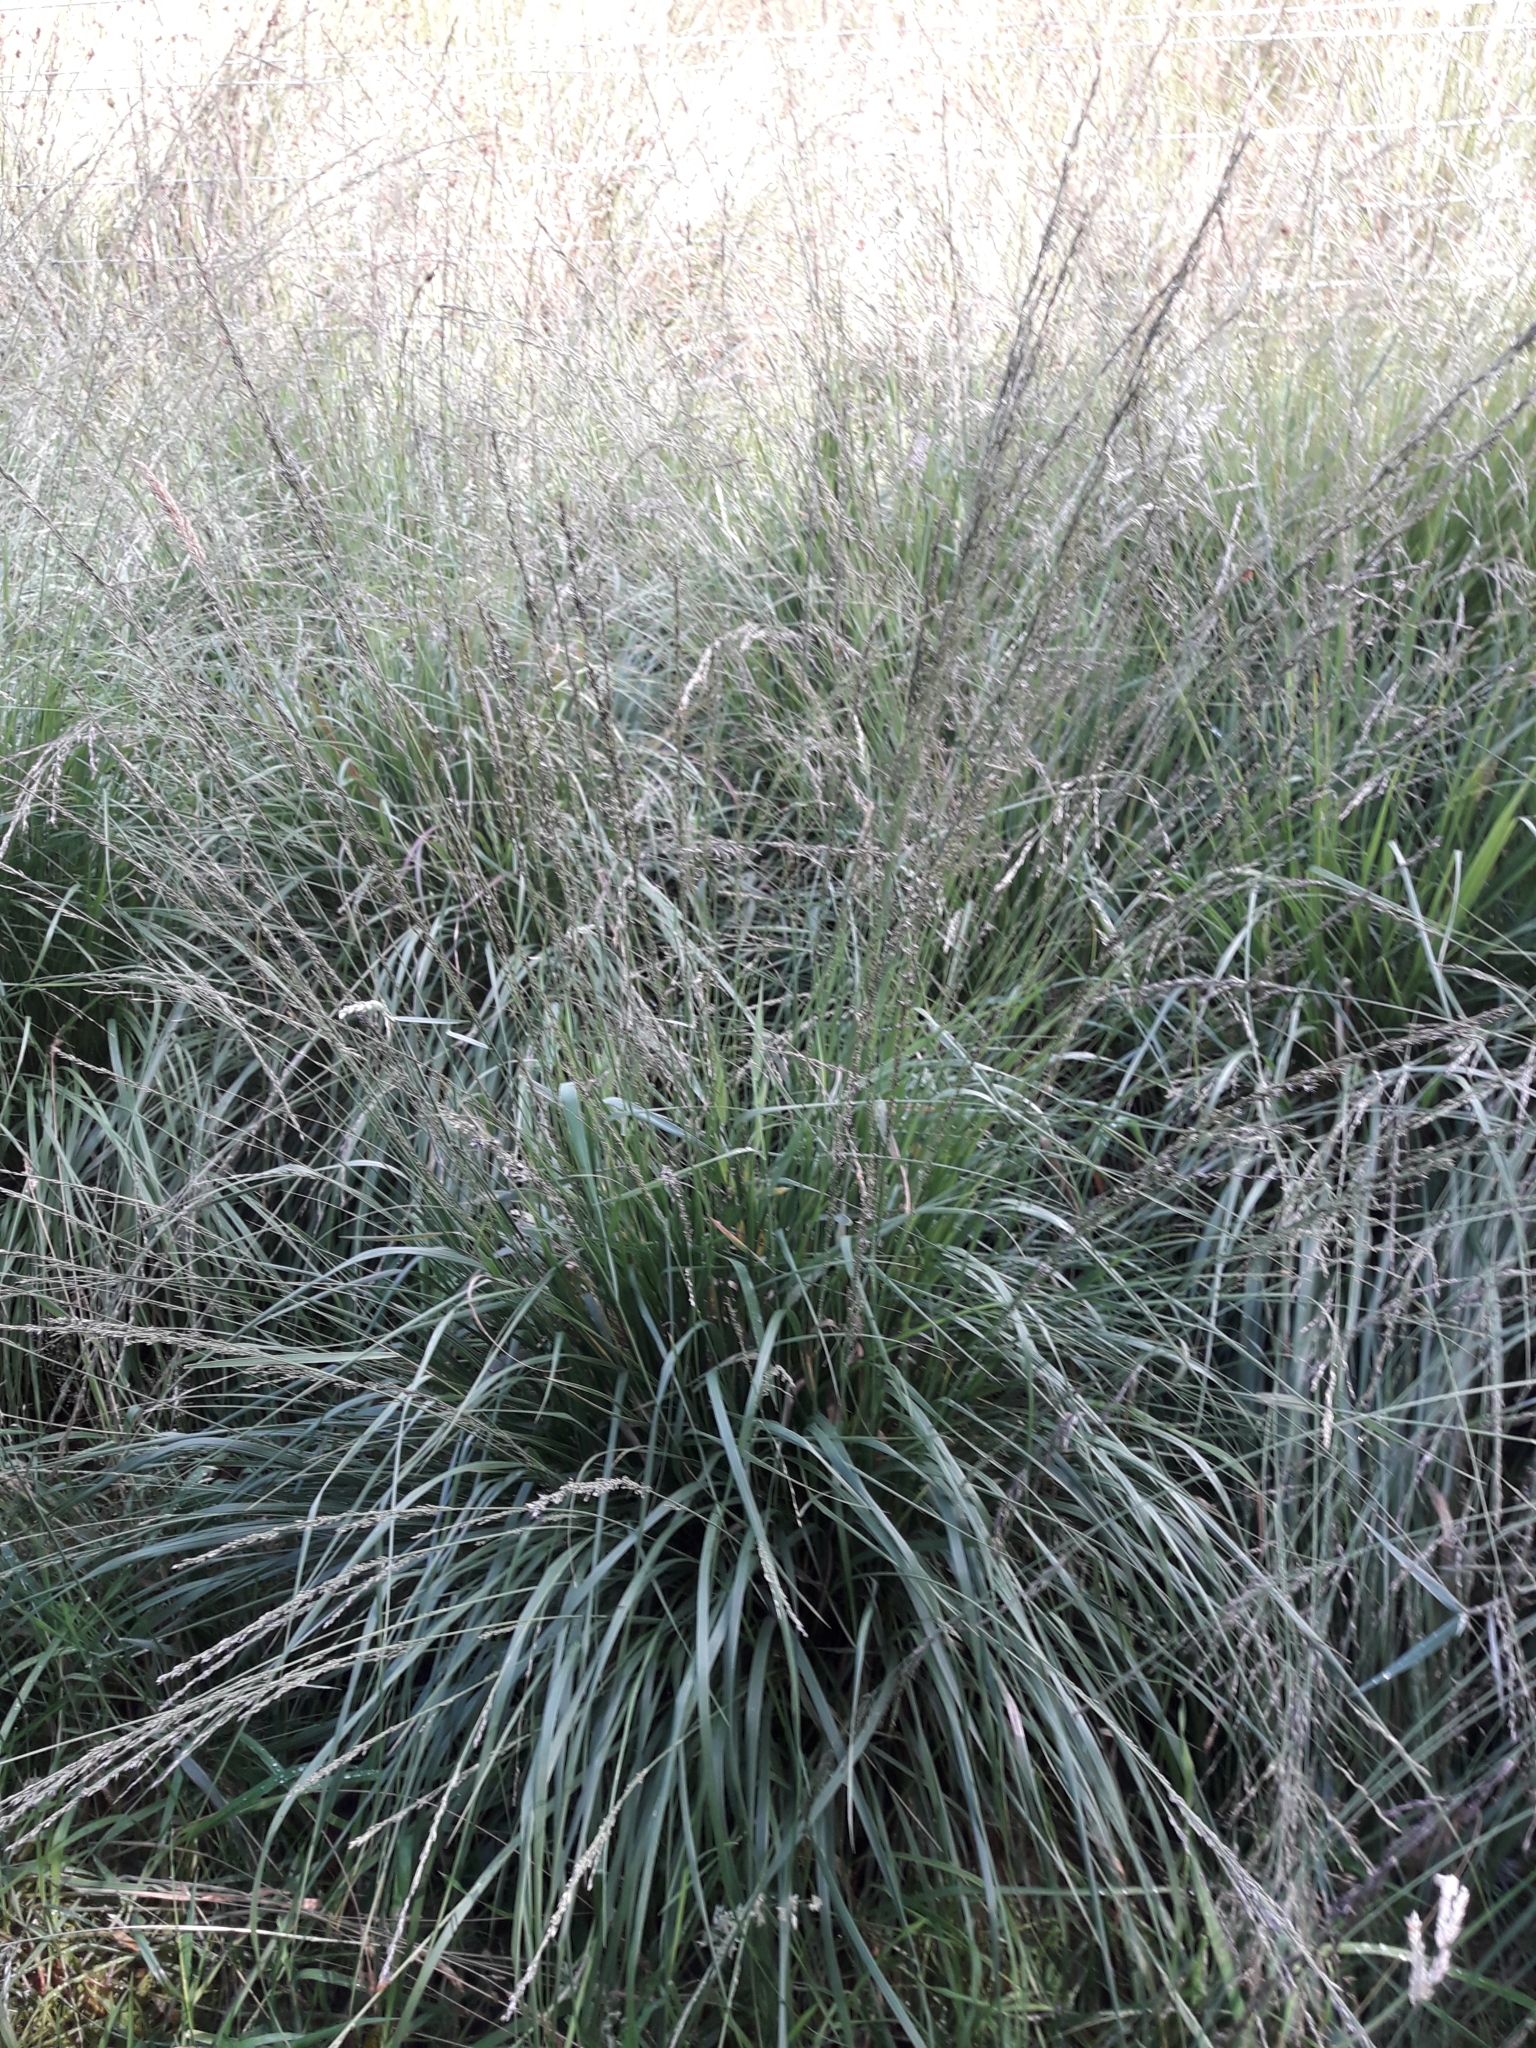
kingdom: Plantae
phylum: Tracheophyta
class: Liliopsida
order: Poales
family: Poaceae
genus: Molinia
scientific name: Molinia caerulea
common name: Purple moor-grass
